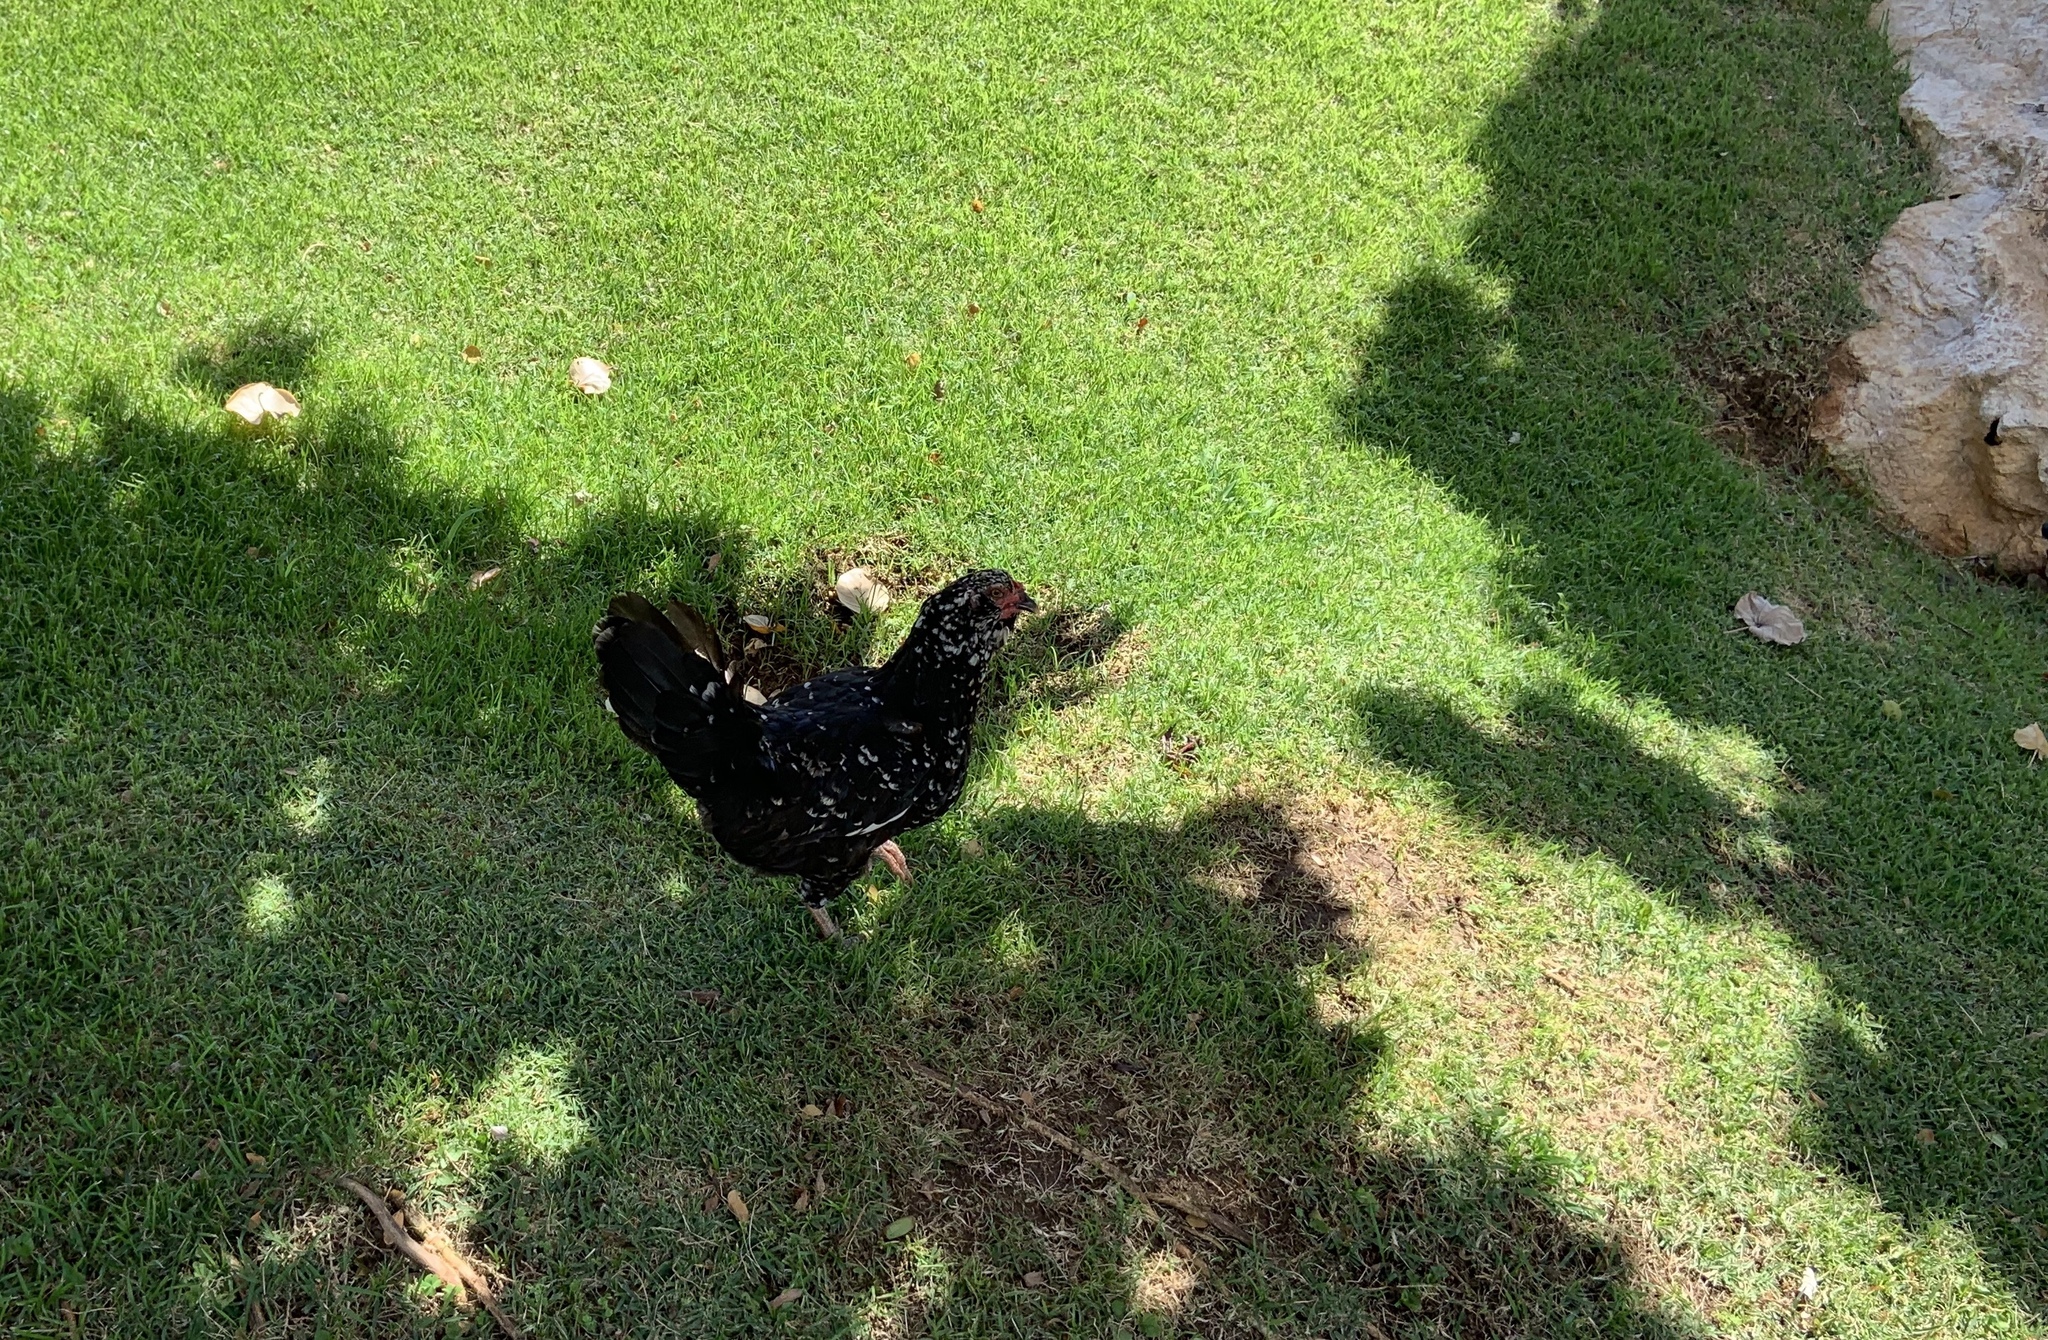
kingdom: Animalia
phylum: Chordata
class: Aves
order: Galliformes
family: Phasianidae
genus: Gallus
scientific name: Gallus gallus
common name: Red junglefowl
